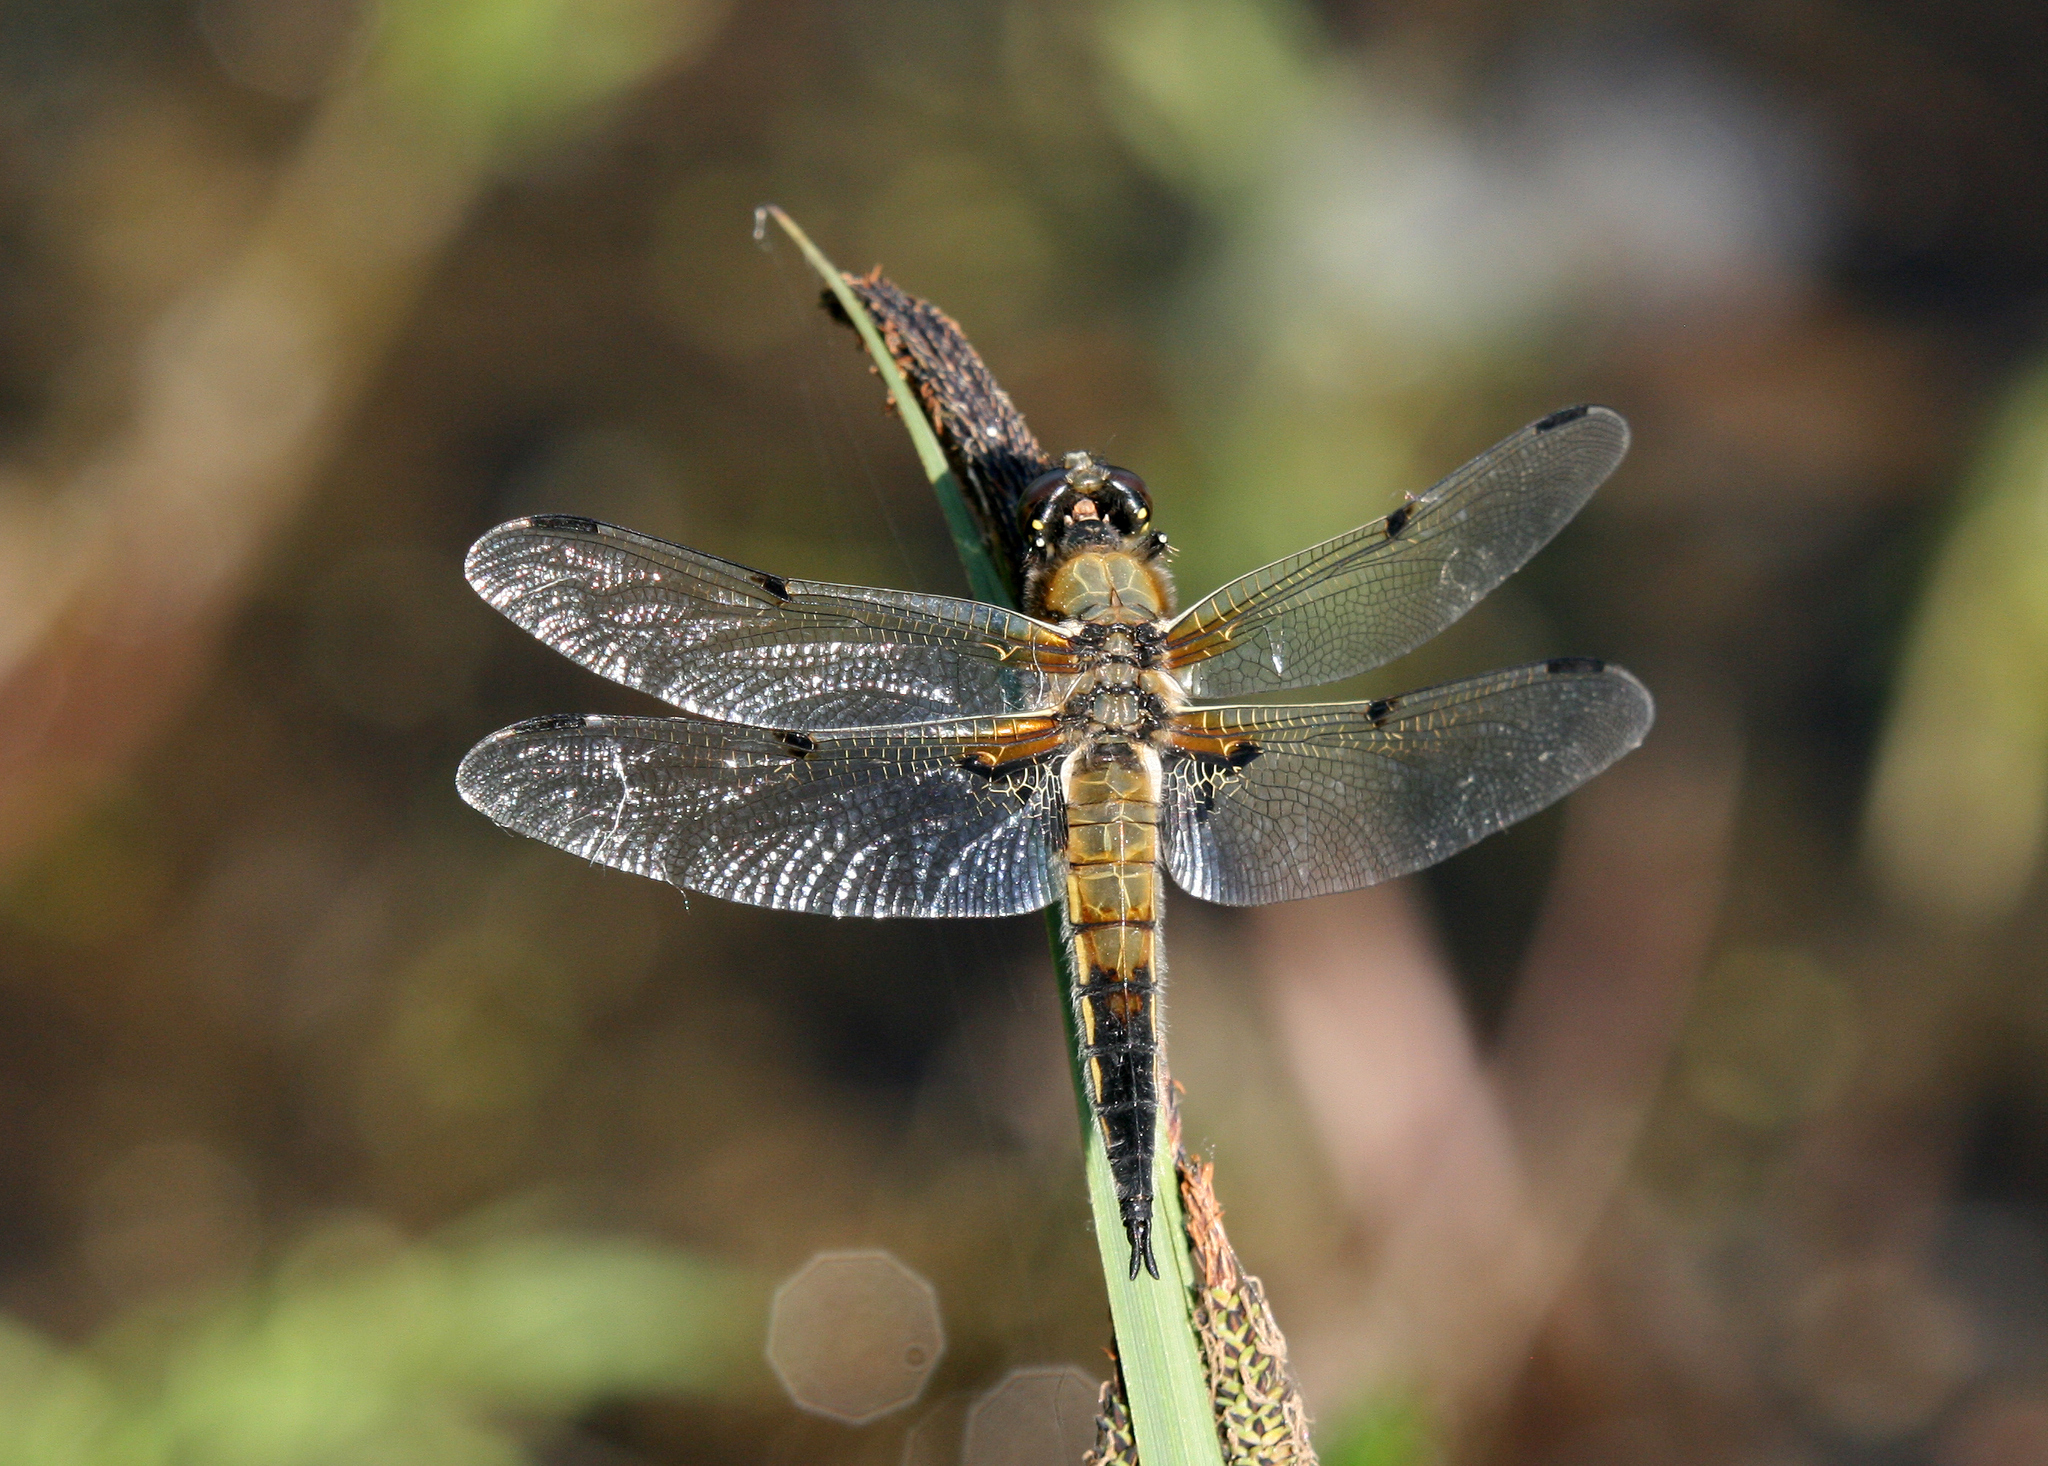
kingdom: Animalia
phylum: Arthropoda
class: Insecta
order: Odonata
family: Libellulidae
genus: Libellula
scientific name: Libellula quadrimaculata
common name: Four-spotted chaser
